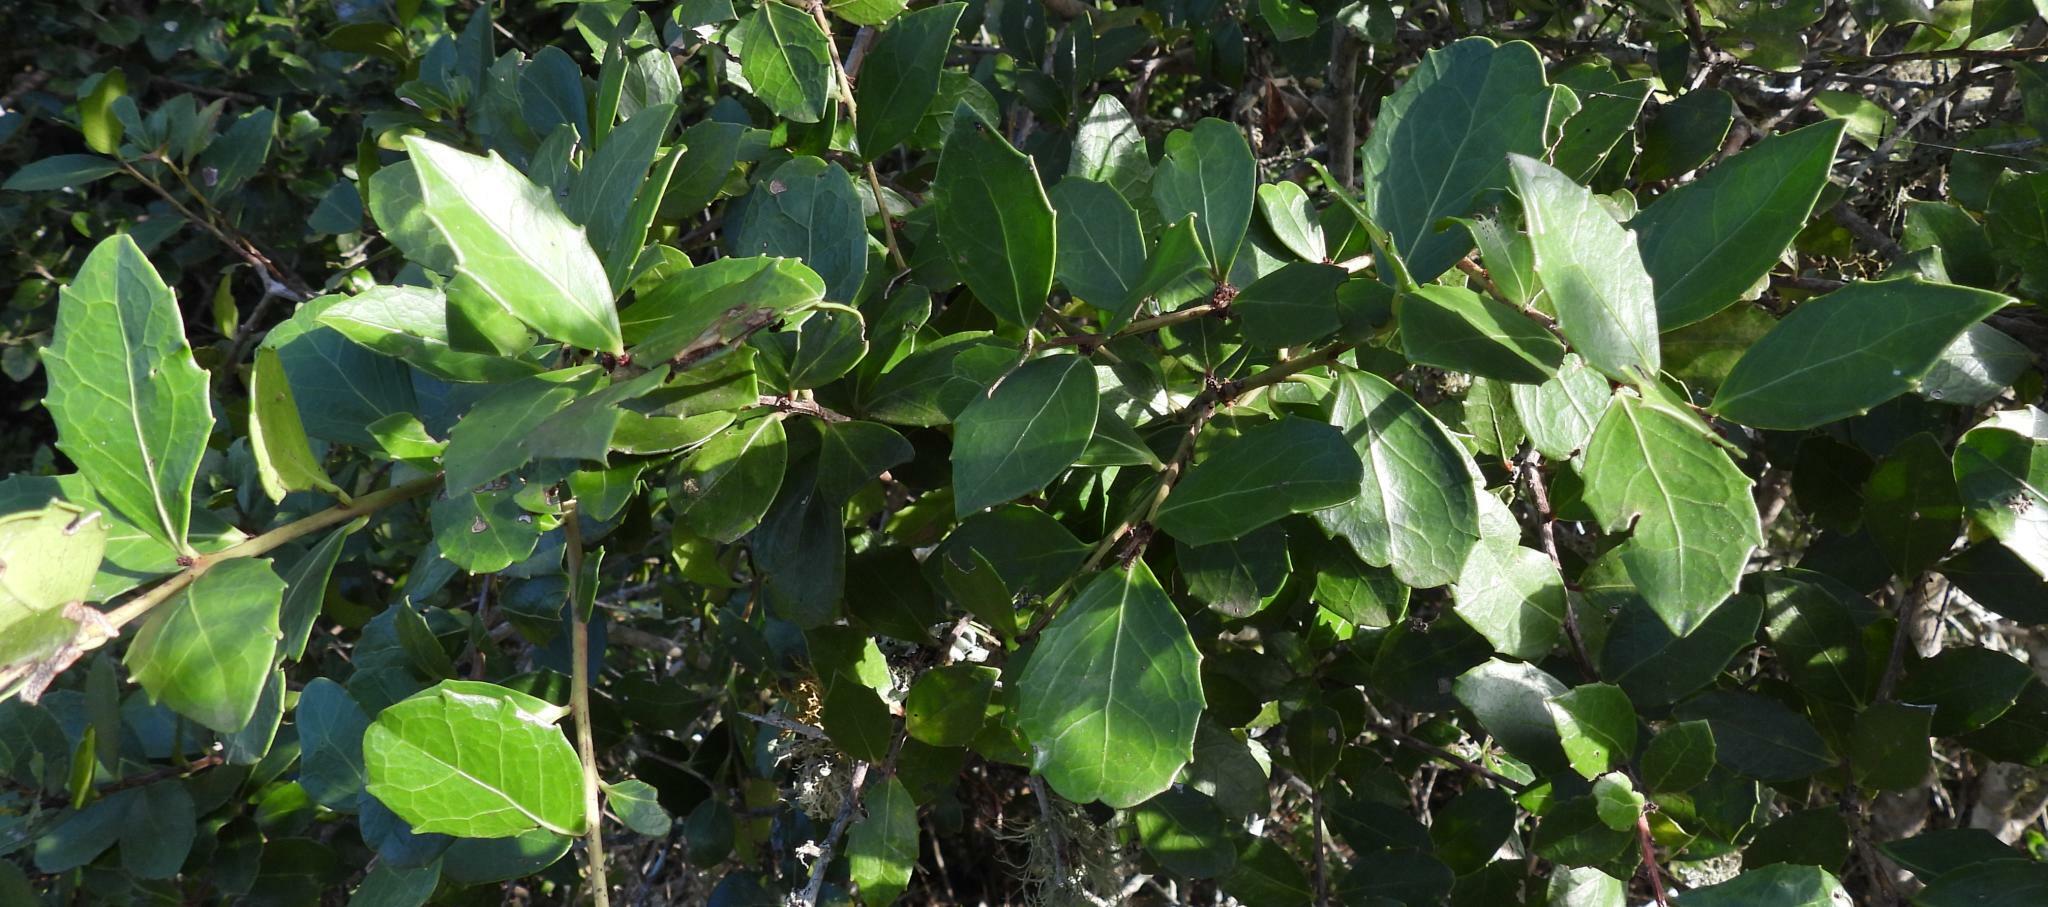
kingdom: Plantae
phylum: Tracheophyta
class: Magnoliopsida
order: Celastrales
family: Celastraceae
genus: Gymnosporia
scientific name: Gymnosporia procumbens
